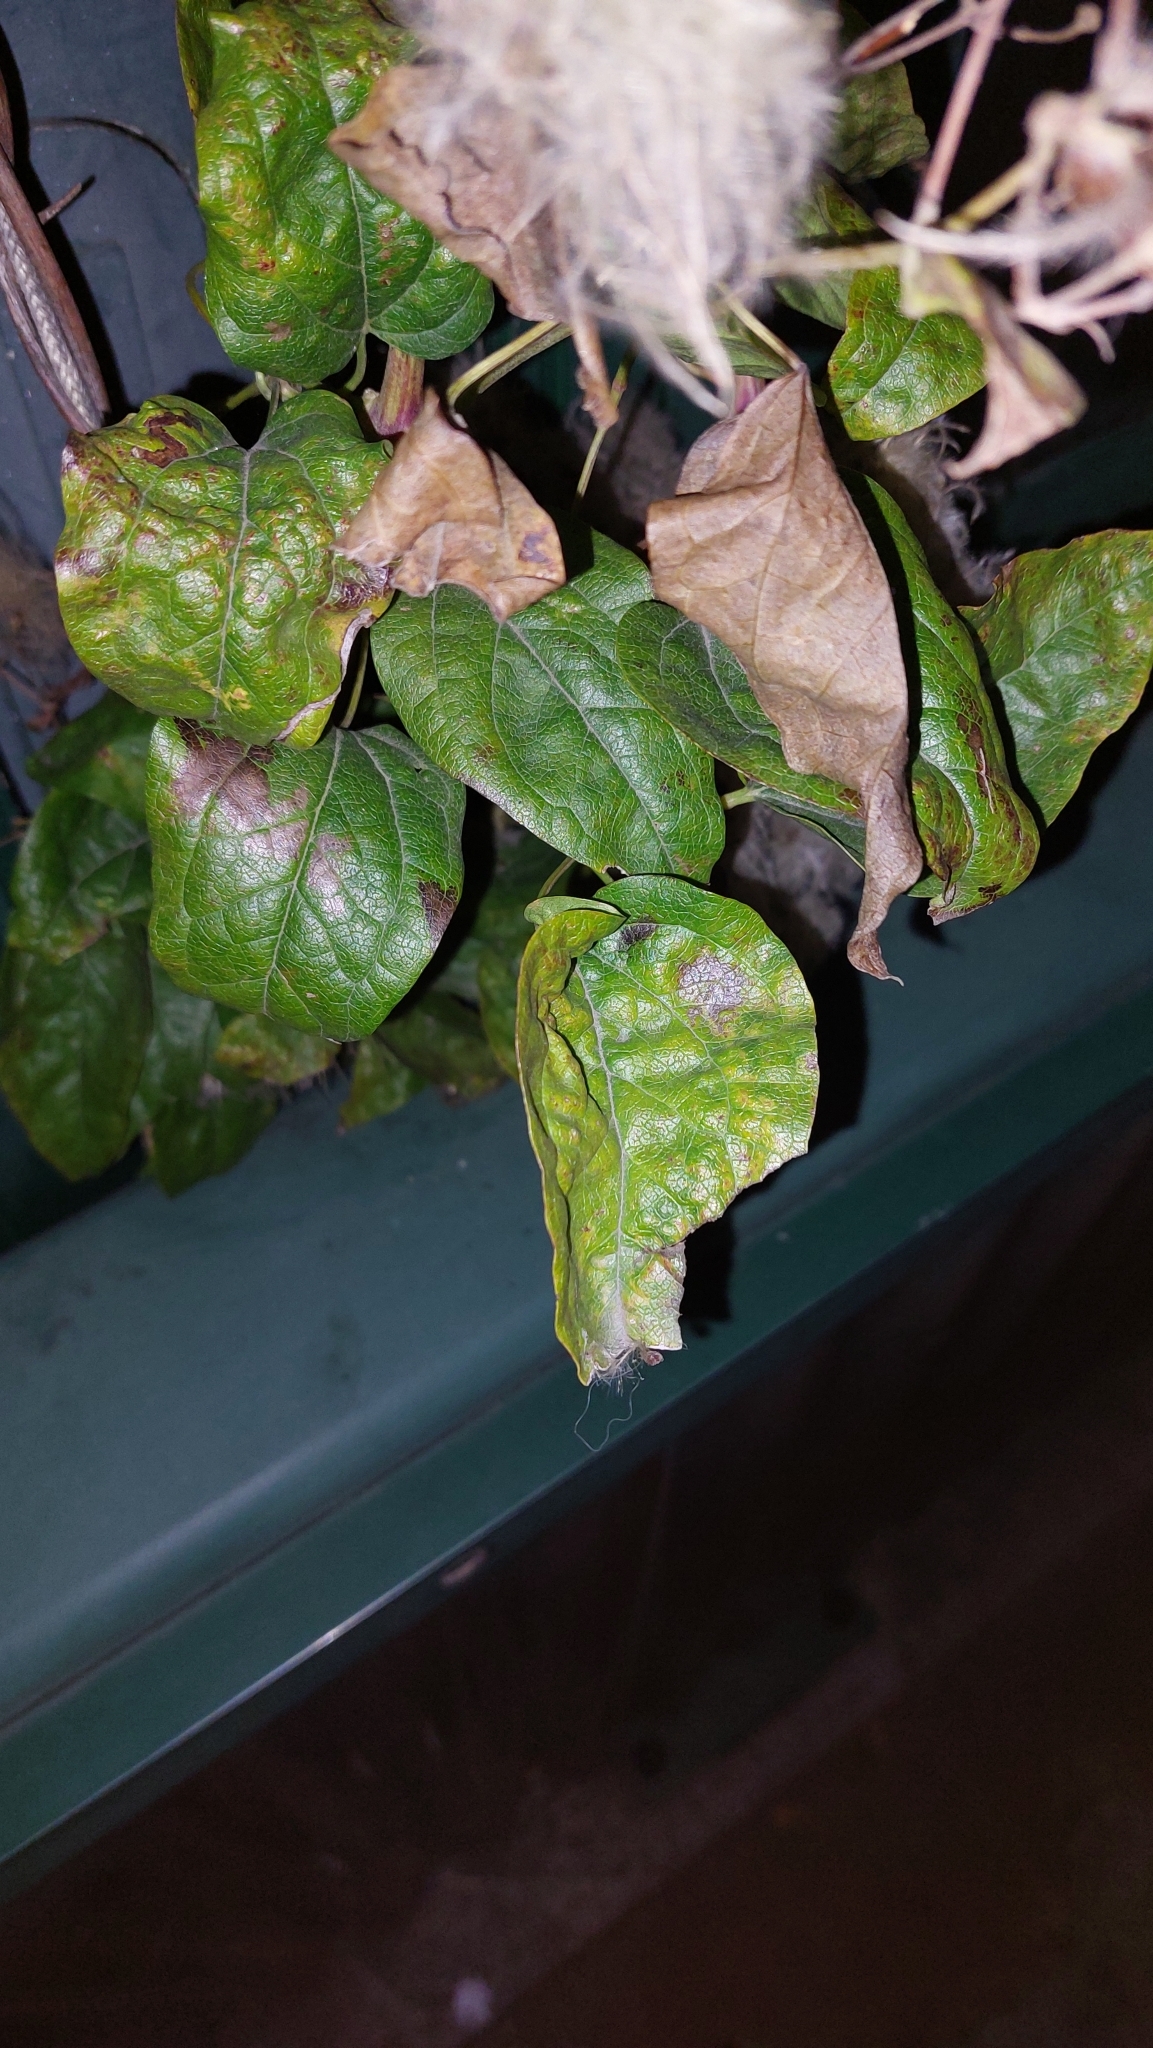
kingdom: Plantae
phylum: Tracheophyta
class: Magnoliopsida
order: Ranunculales
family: Ranunculaceae
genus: Clematis
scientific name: Clematis vitalba
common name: Evergreen clematis
